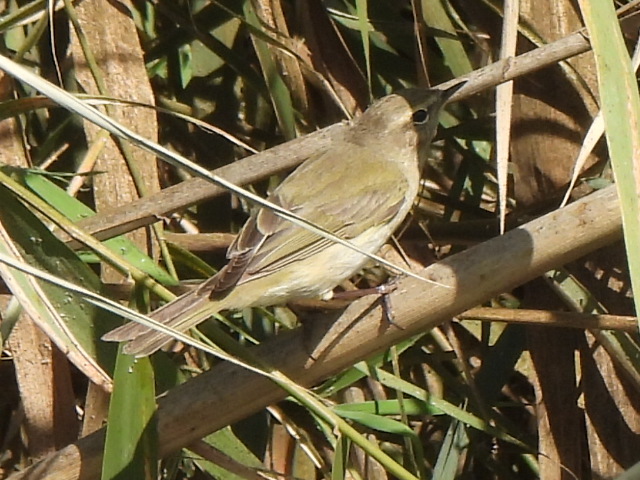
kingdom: Animalia
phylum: Chordata
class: Aves
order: Passeriformes
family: Phylloscopidae
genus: Phylloscopus
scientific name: Phylloscopus collybita
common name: Common chiffchaff
